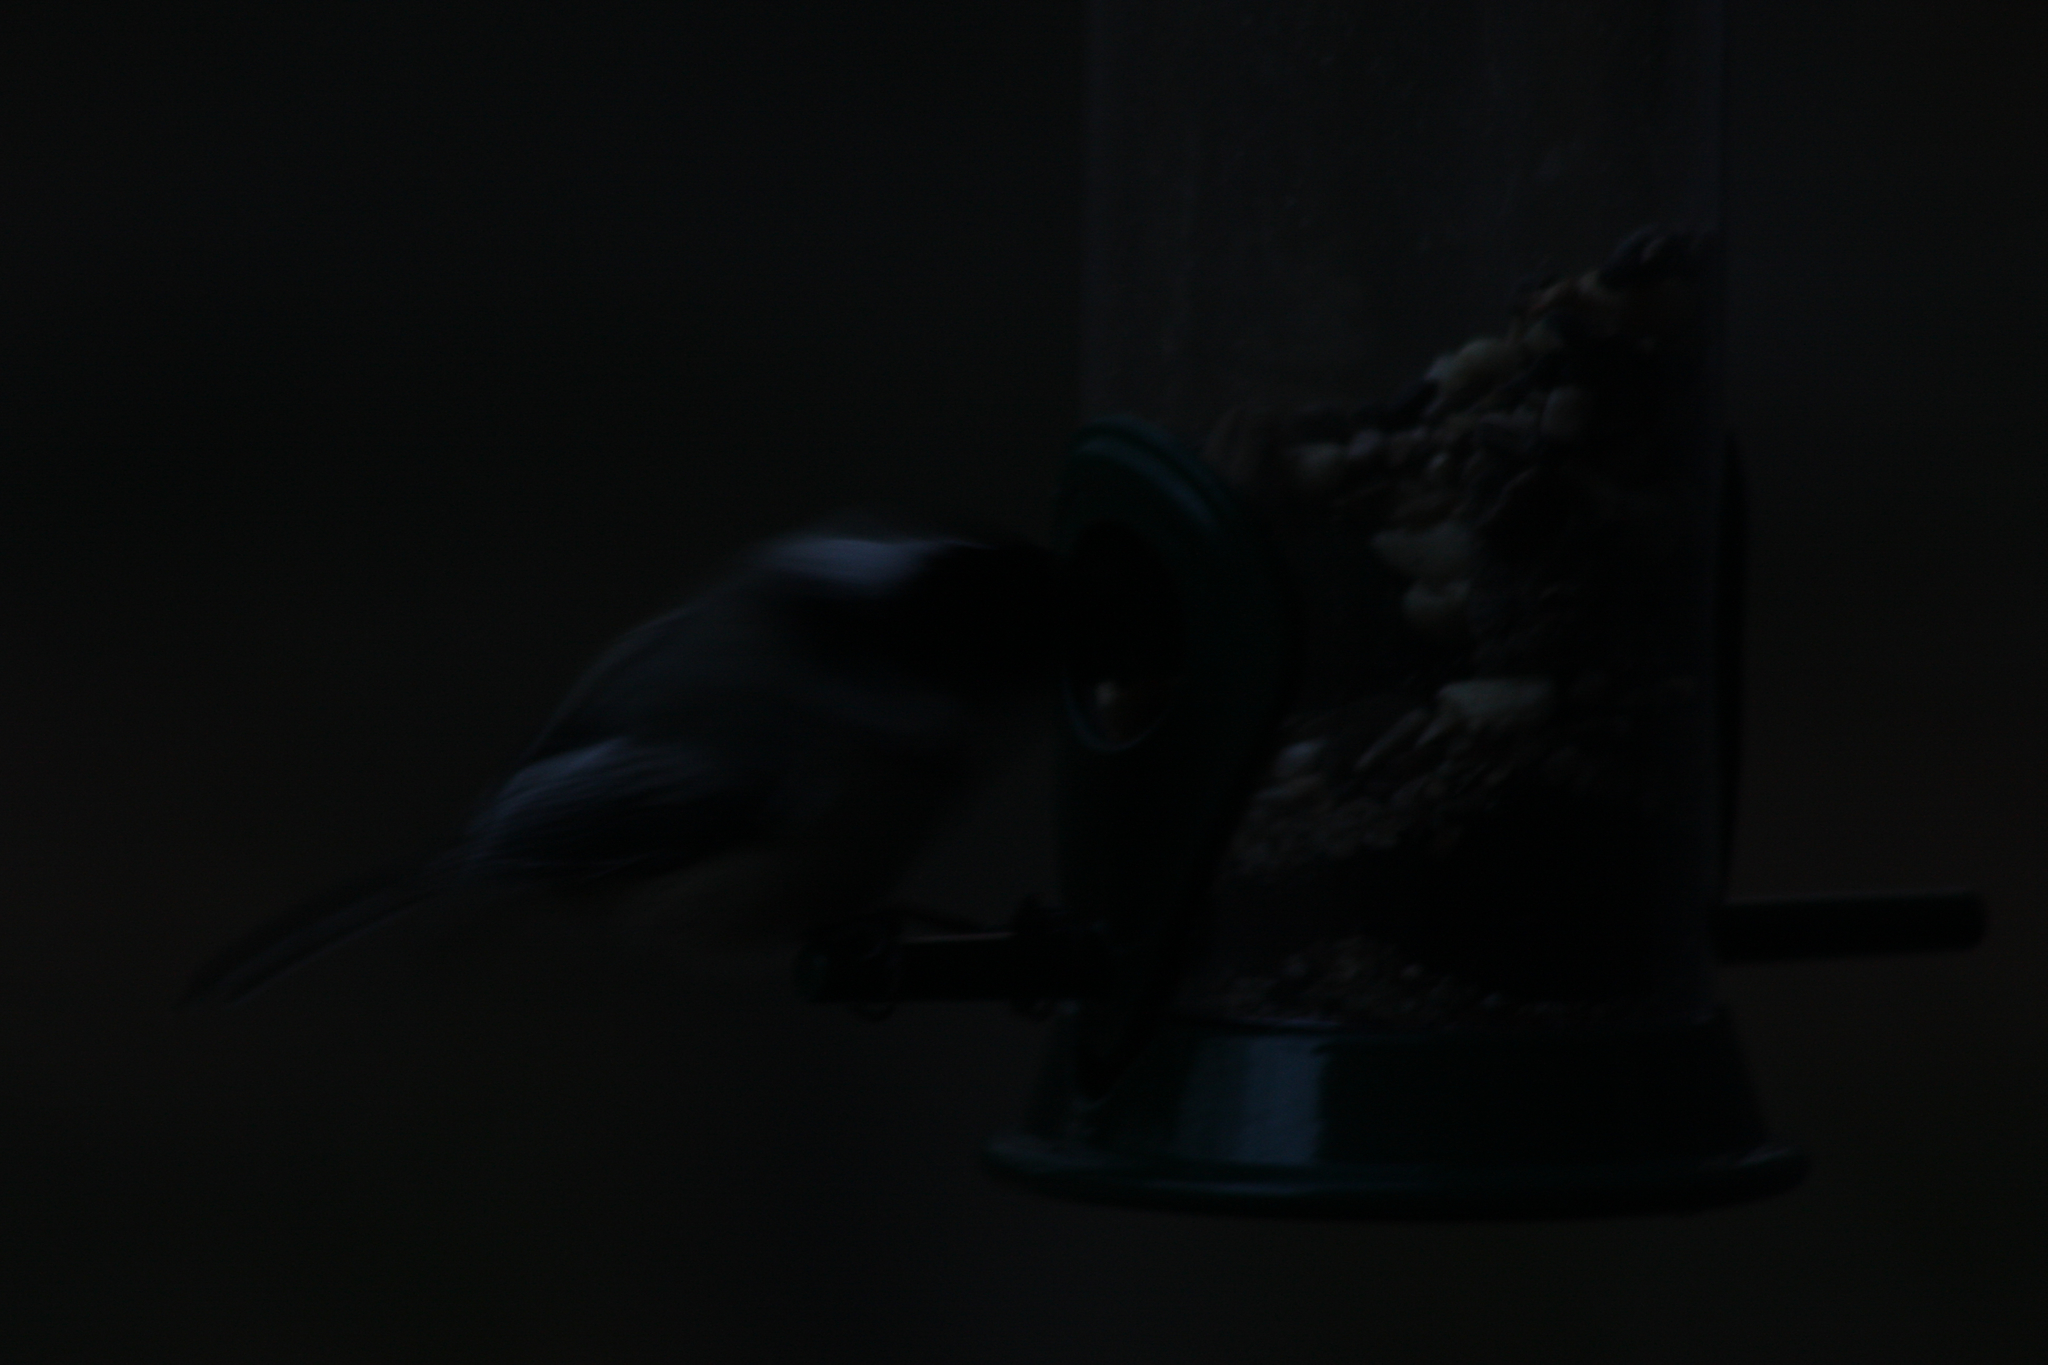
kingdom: Animalia
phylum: Chordata
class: Aves
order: Passeriformes
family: Paridae
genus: Poecile
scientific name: Poecile atricapillus
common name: Black-capped chickadee
